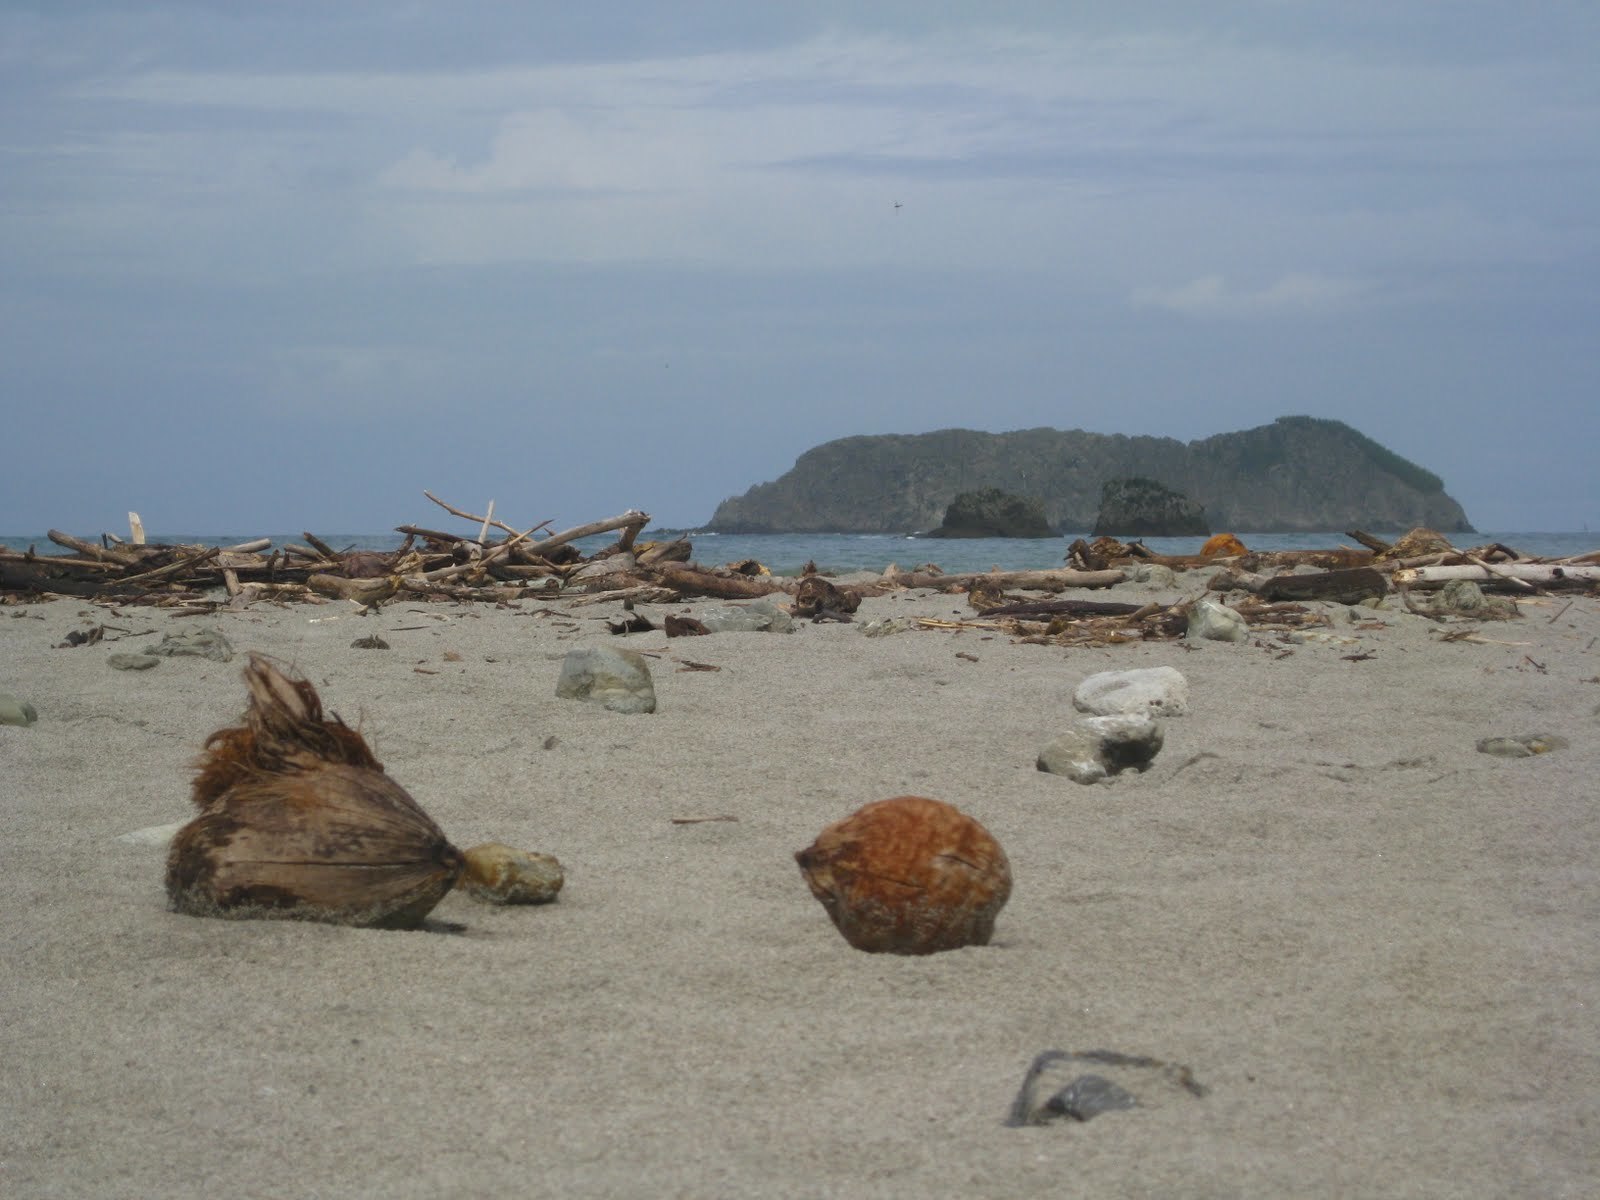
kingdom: Plantae
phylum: Tracheophyta
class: Liliopsida
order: Arecales
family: Arecaceae
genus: Cocos
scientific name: Cocos nucifera
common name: Coconut palm
